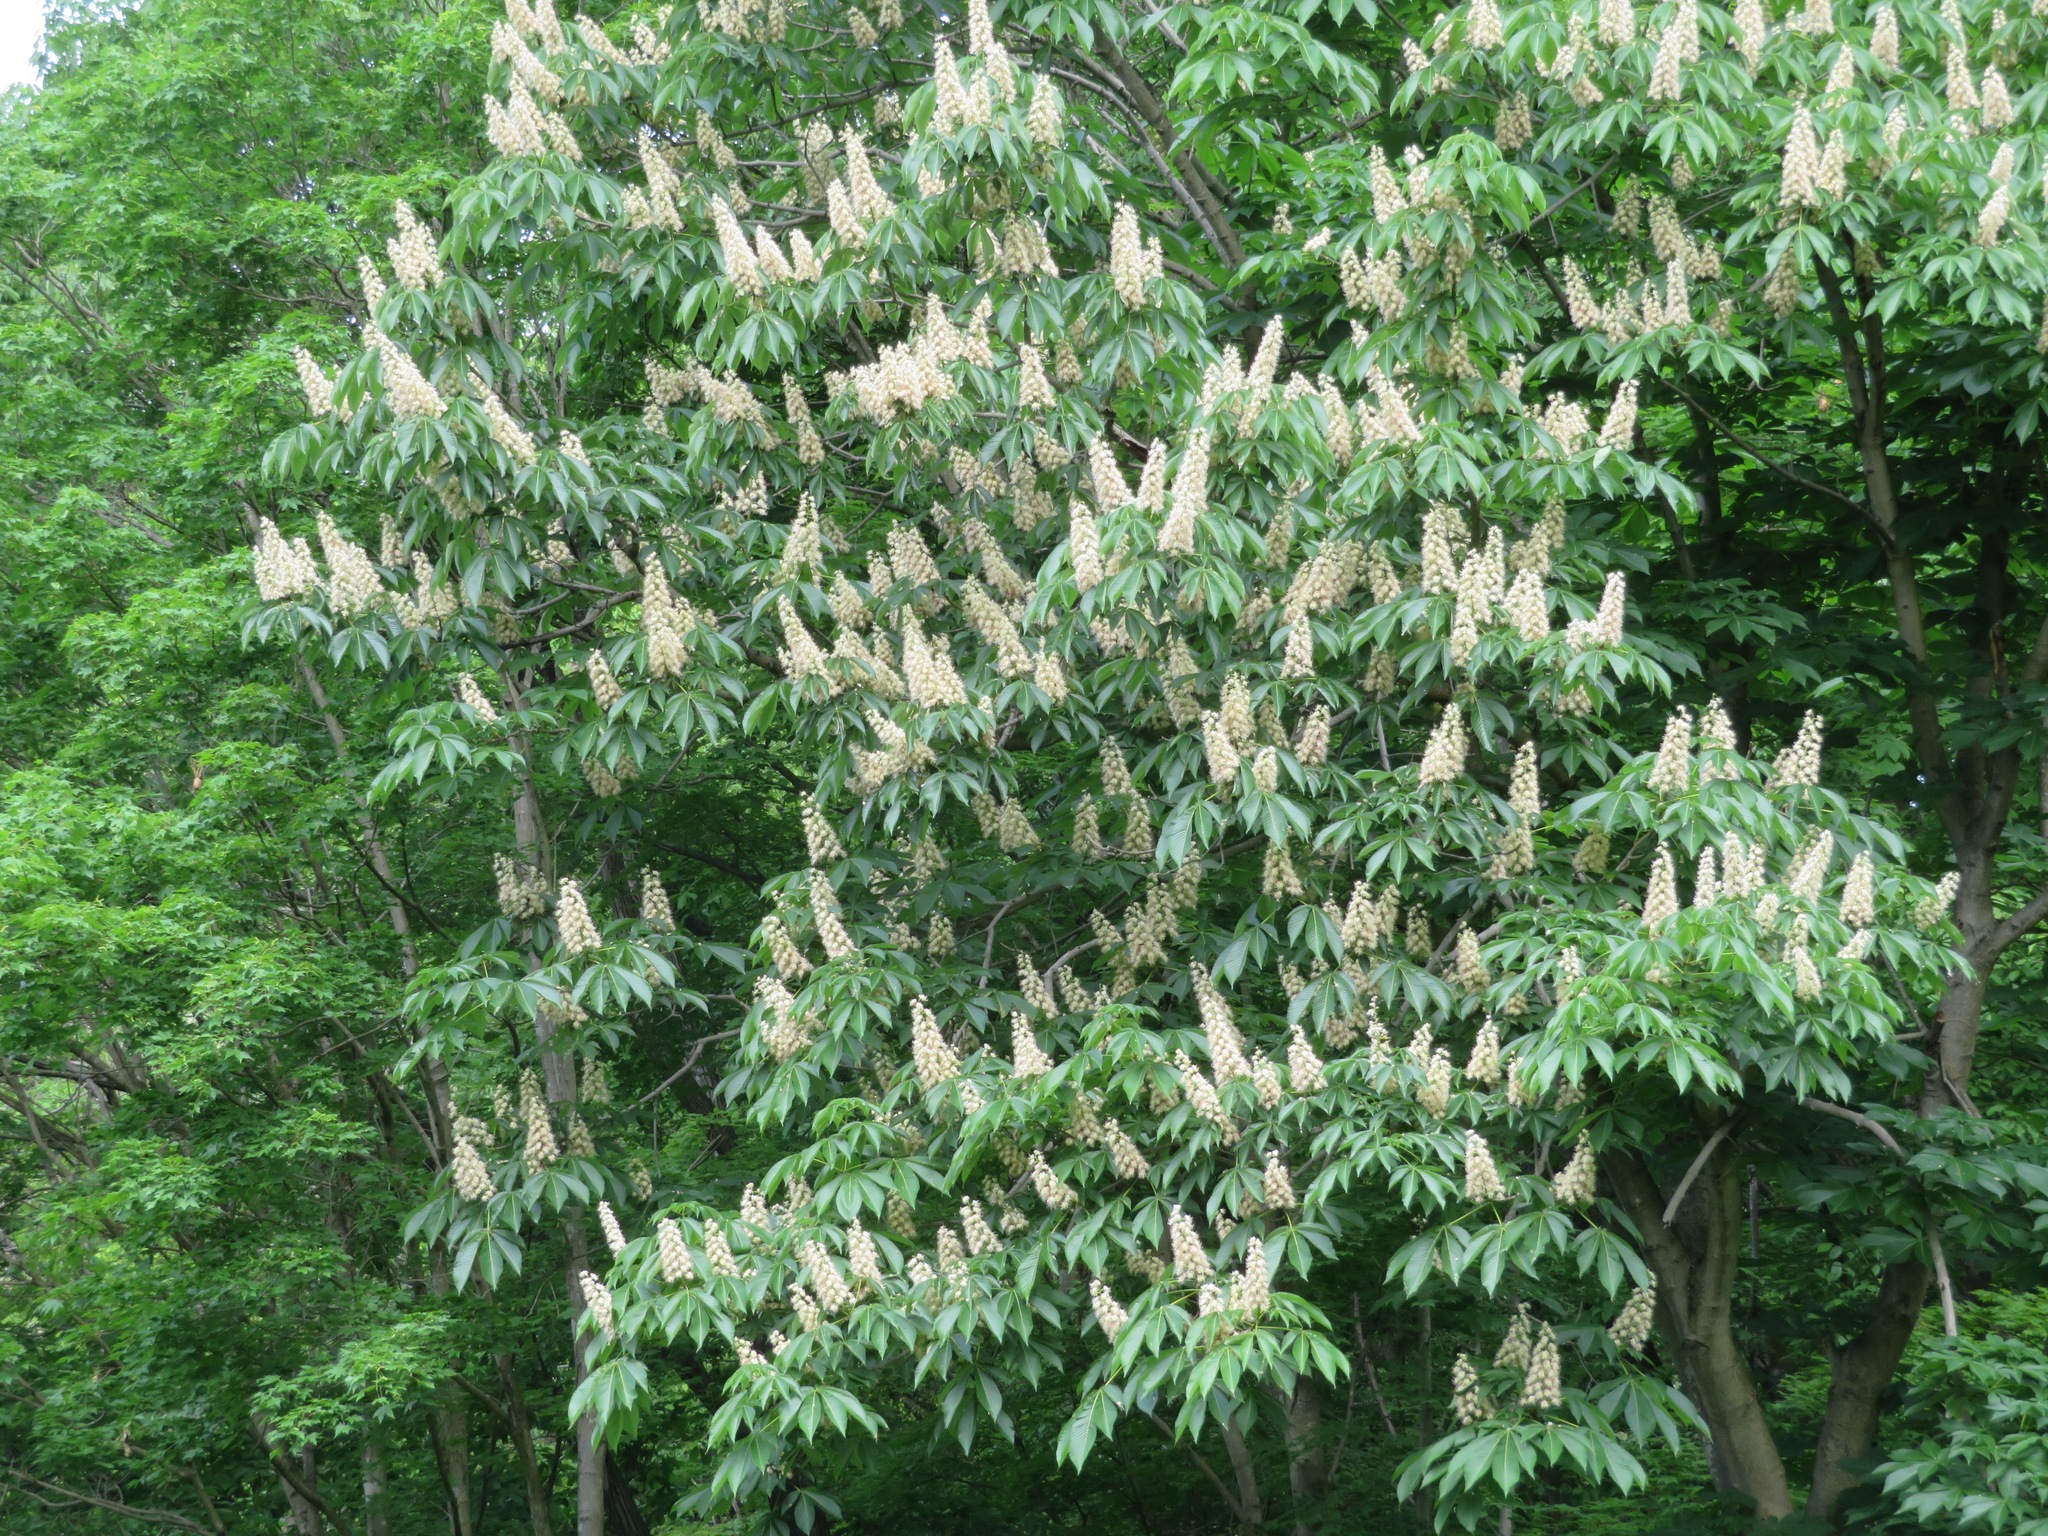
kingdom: Plantae
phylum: Tracheophyta
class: Magnoliopsida
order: Sapindales
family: Sapindaceae
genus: Aesculus
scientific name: Aesculus turbinata
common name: Japanese horse-chestnut
